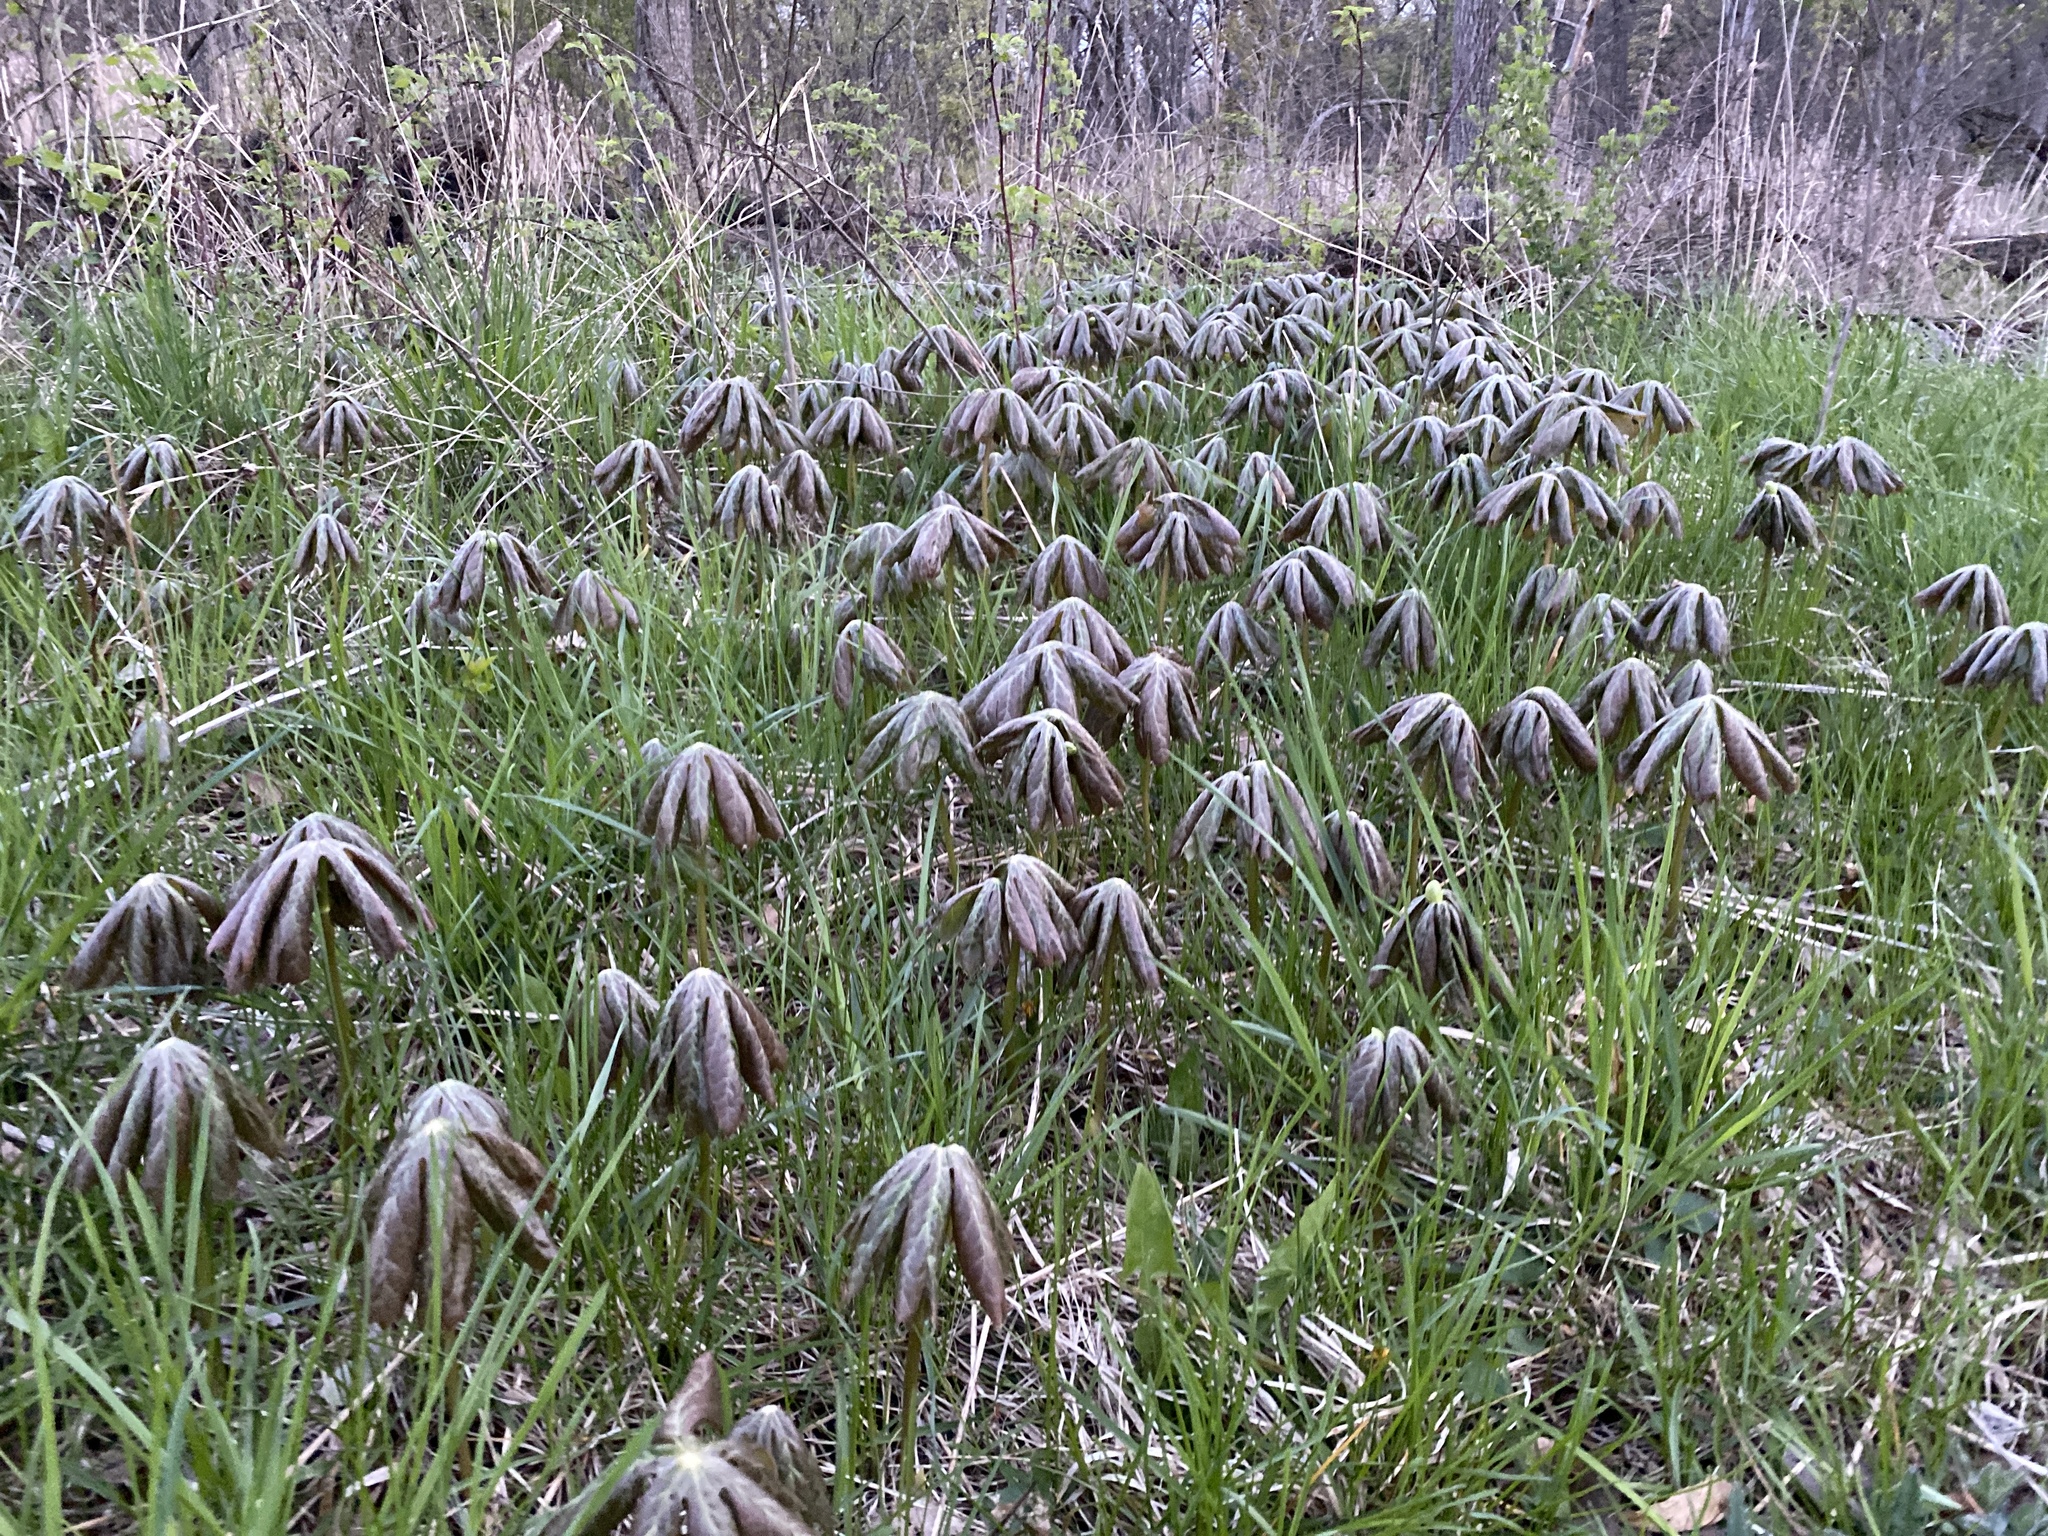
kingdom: Plantae
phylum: Tracheophyta
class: Magnoliopsida
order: Ranunculales
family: Berberidaceae
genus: Podophyllum
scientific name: Podophyllum peltatum
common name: Wild mandrake
